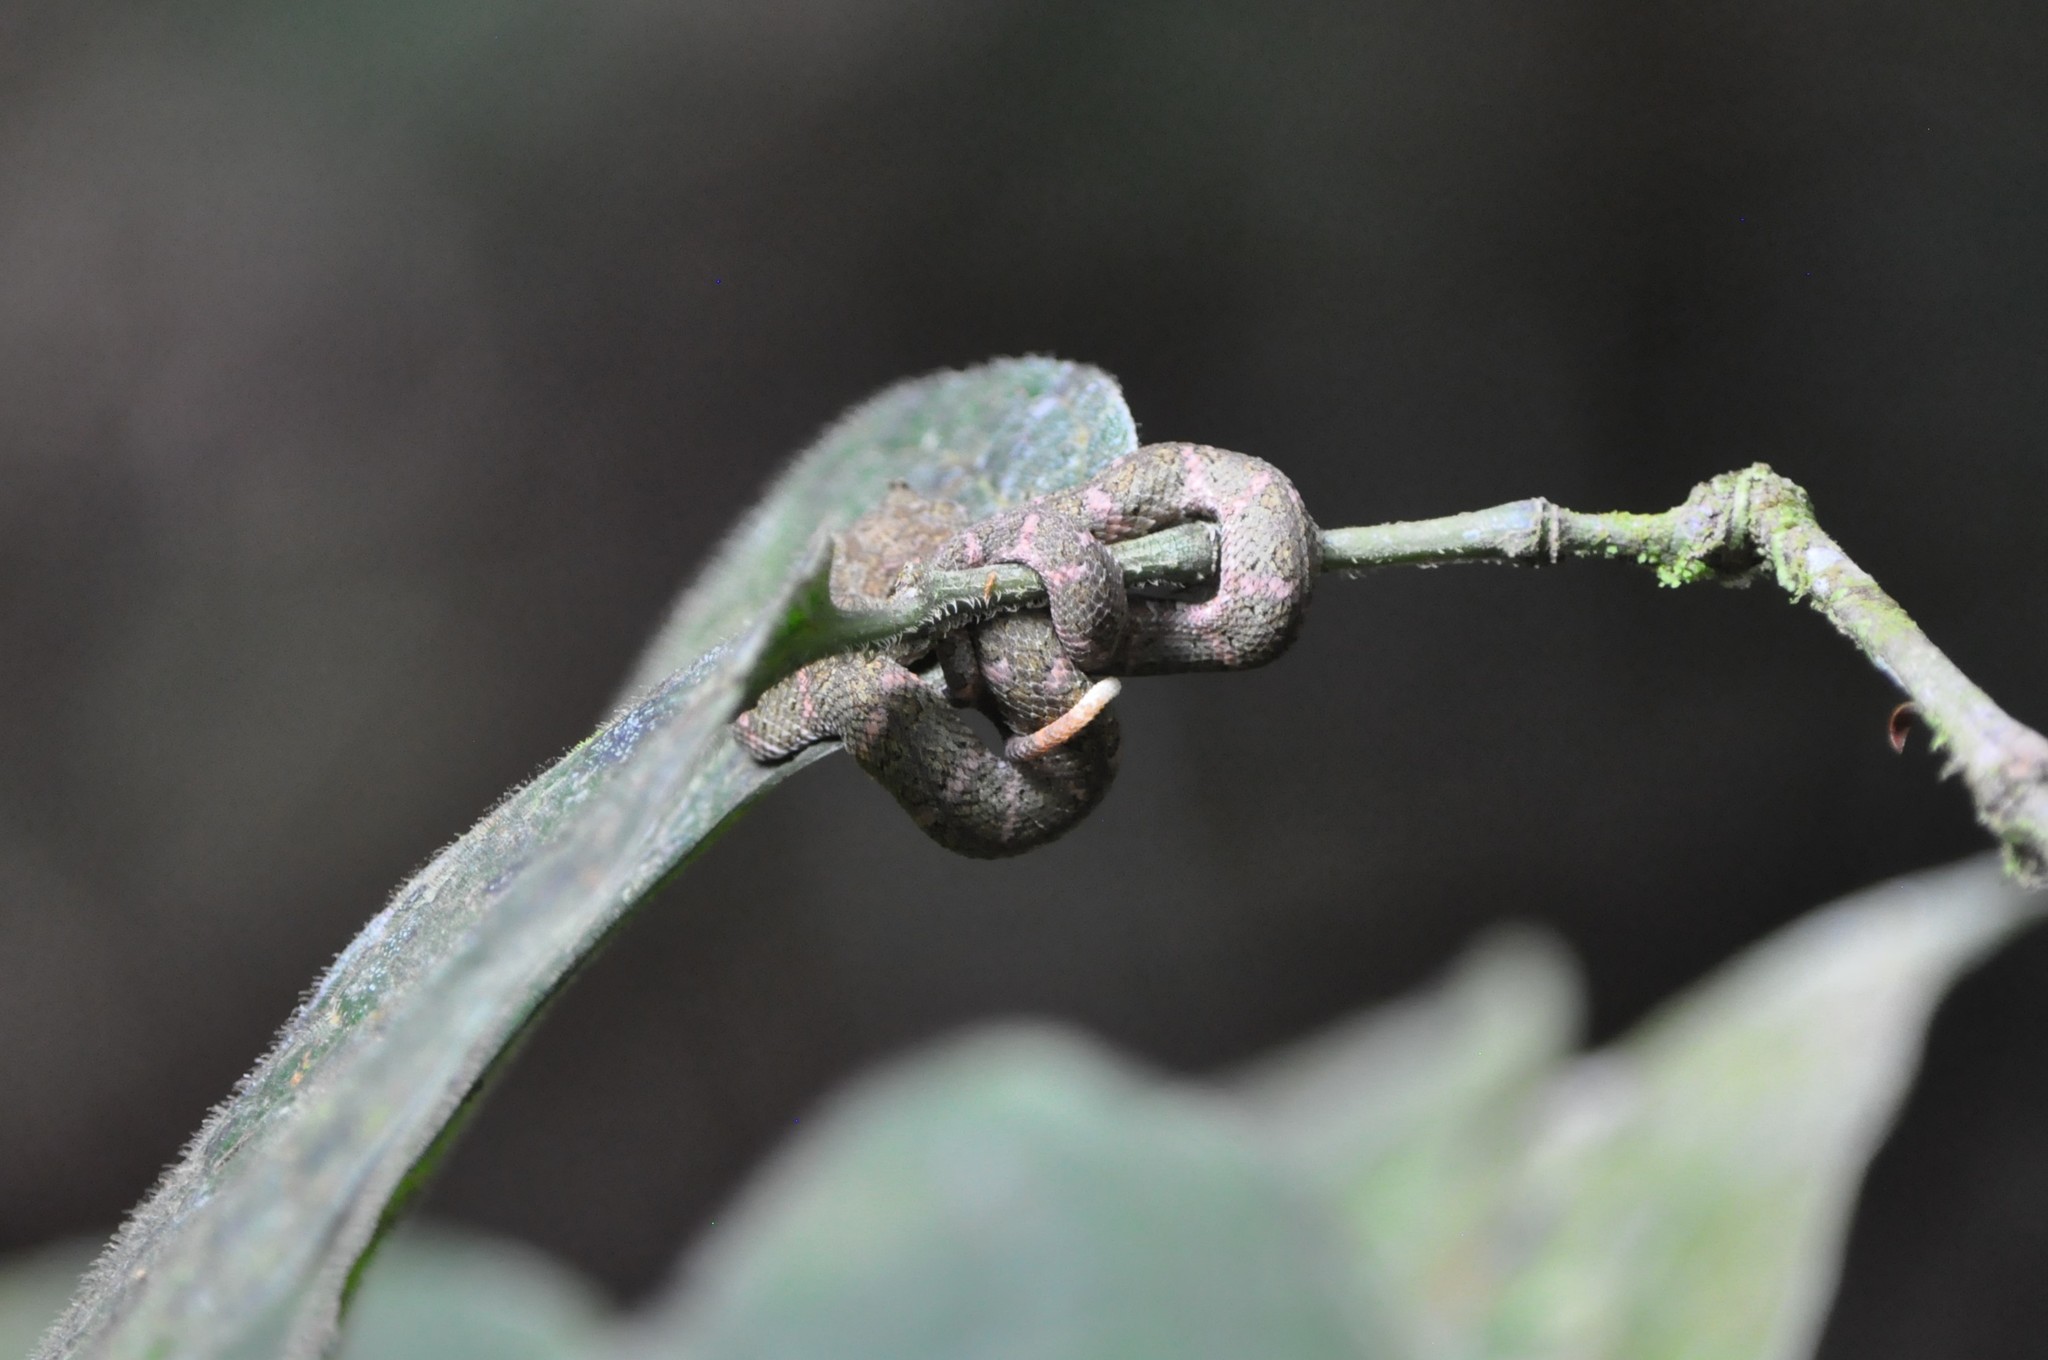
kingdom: Animalia
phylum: Chordata
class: Squamata
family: Viperidae
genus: Bothriechis
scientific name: Bothriechis schlegelii
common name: Eyelash viper
